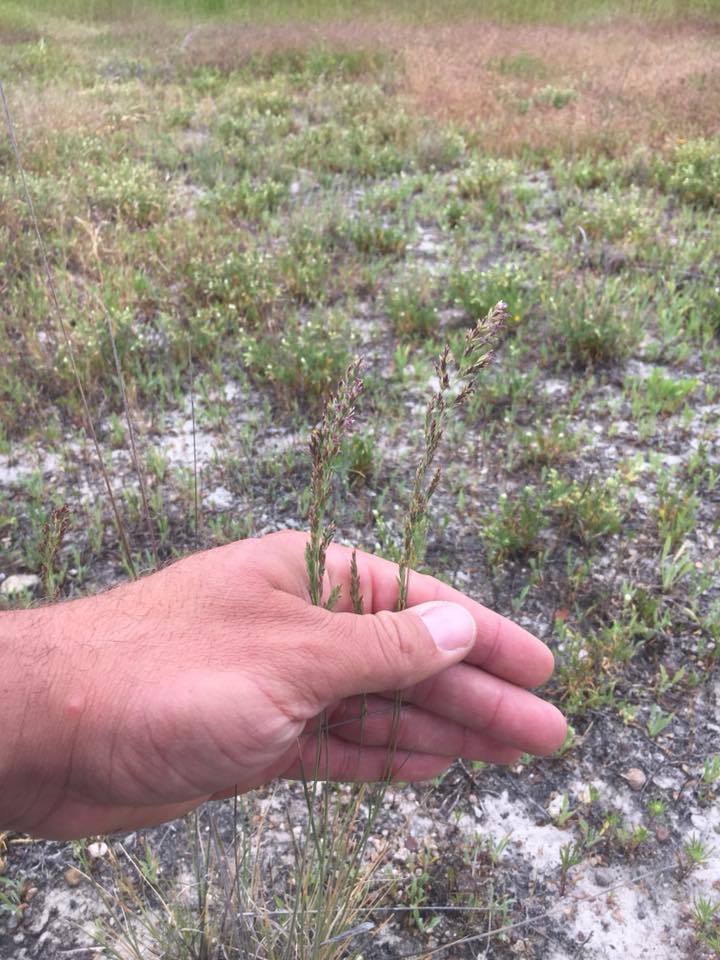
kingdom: Plantae
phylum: Tracheophyta
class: Liliopsida
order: Poales
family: Poaceae
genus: Poa
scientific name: Poa napensis
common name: Napa bluegrass
